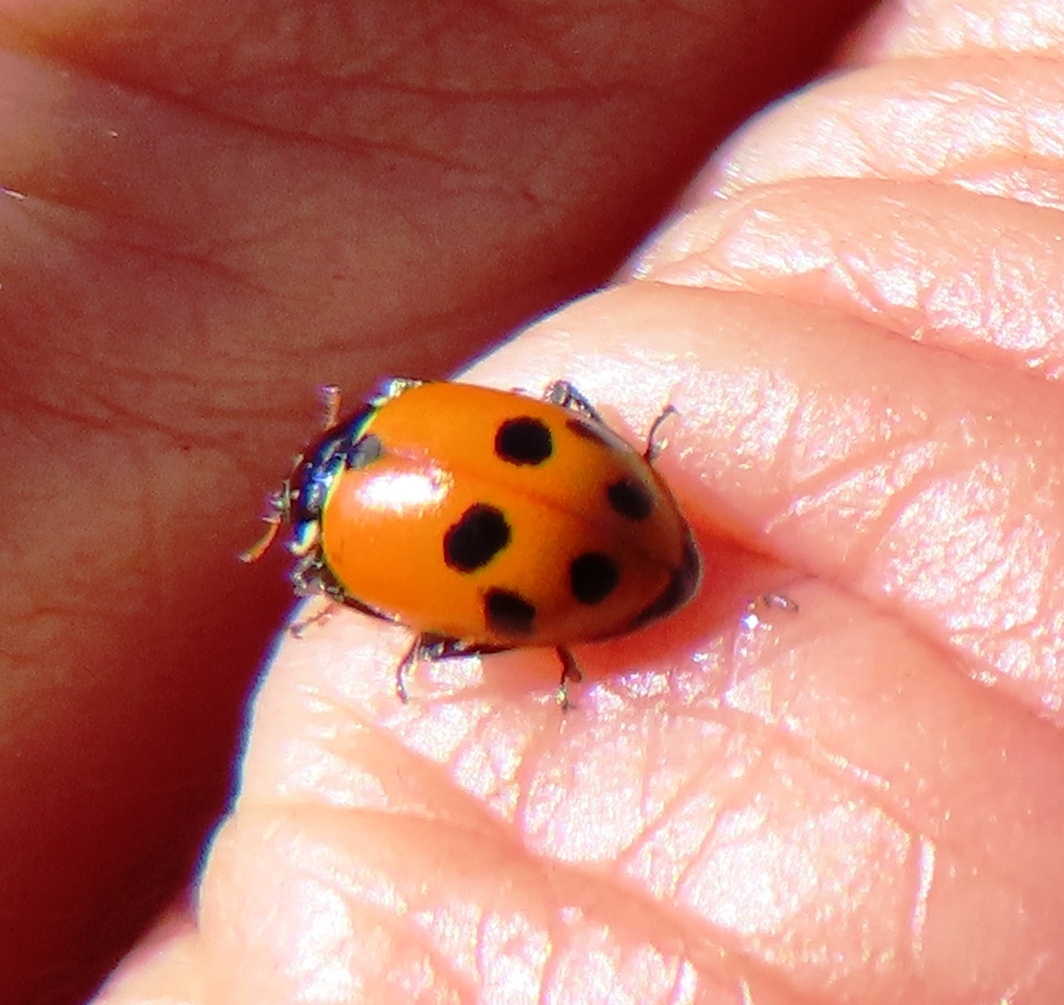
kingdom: Animalia
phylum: Arthropoda
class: Insecta
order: Coleoptera
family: Coccinellidae
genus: Hippodamia
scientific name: Hippodamia variegata
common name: Ladybird beetle
